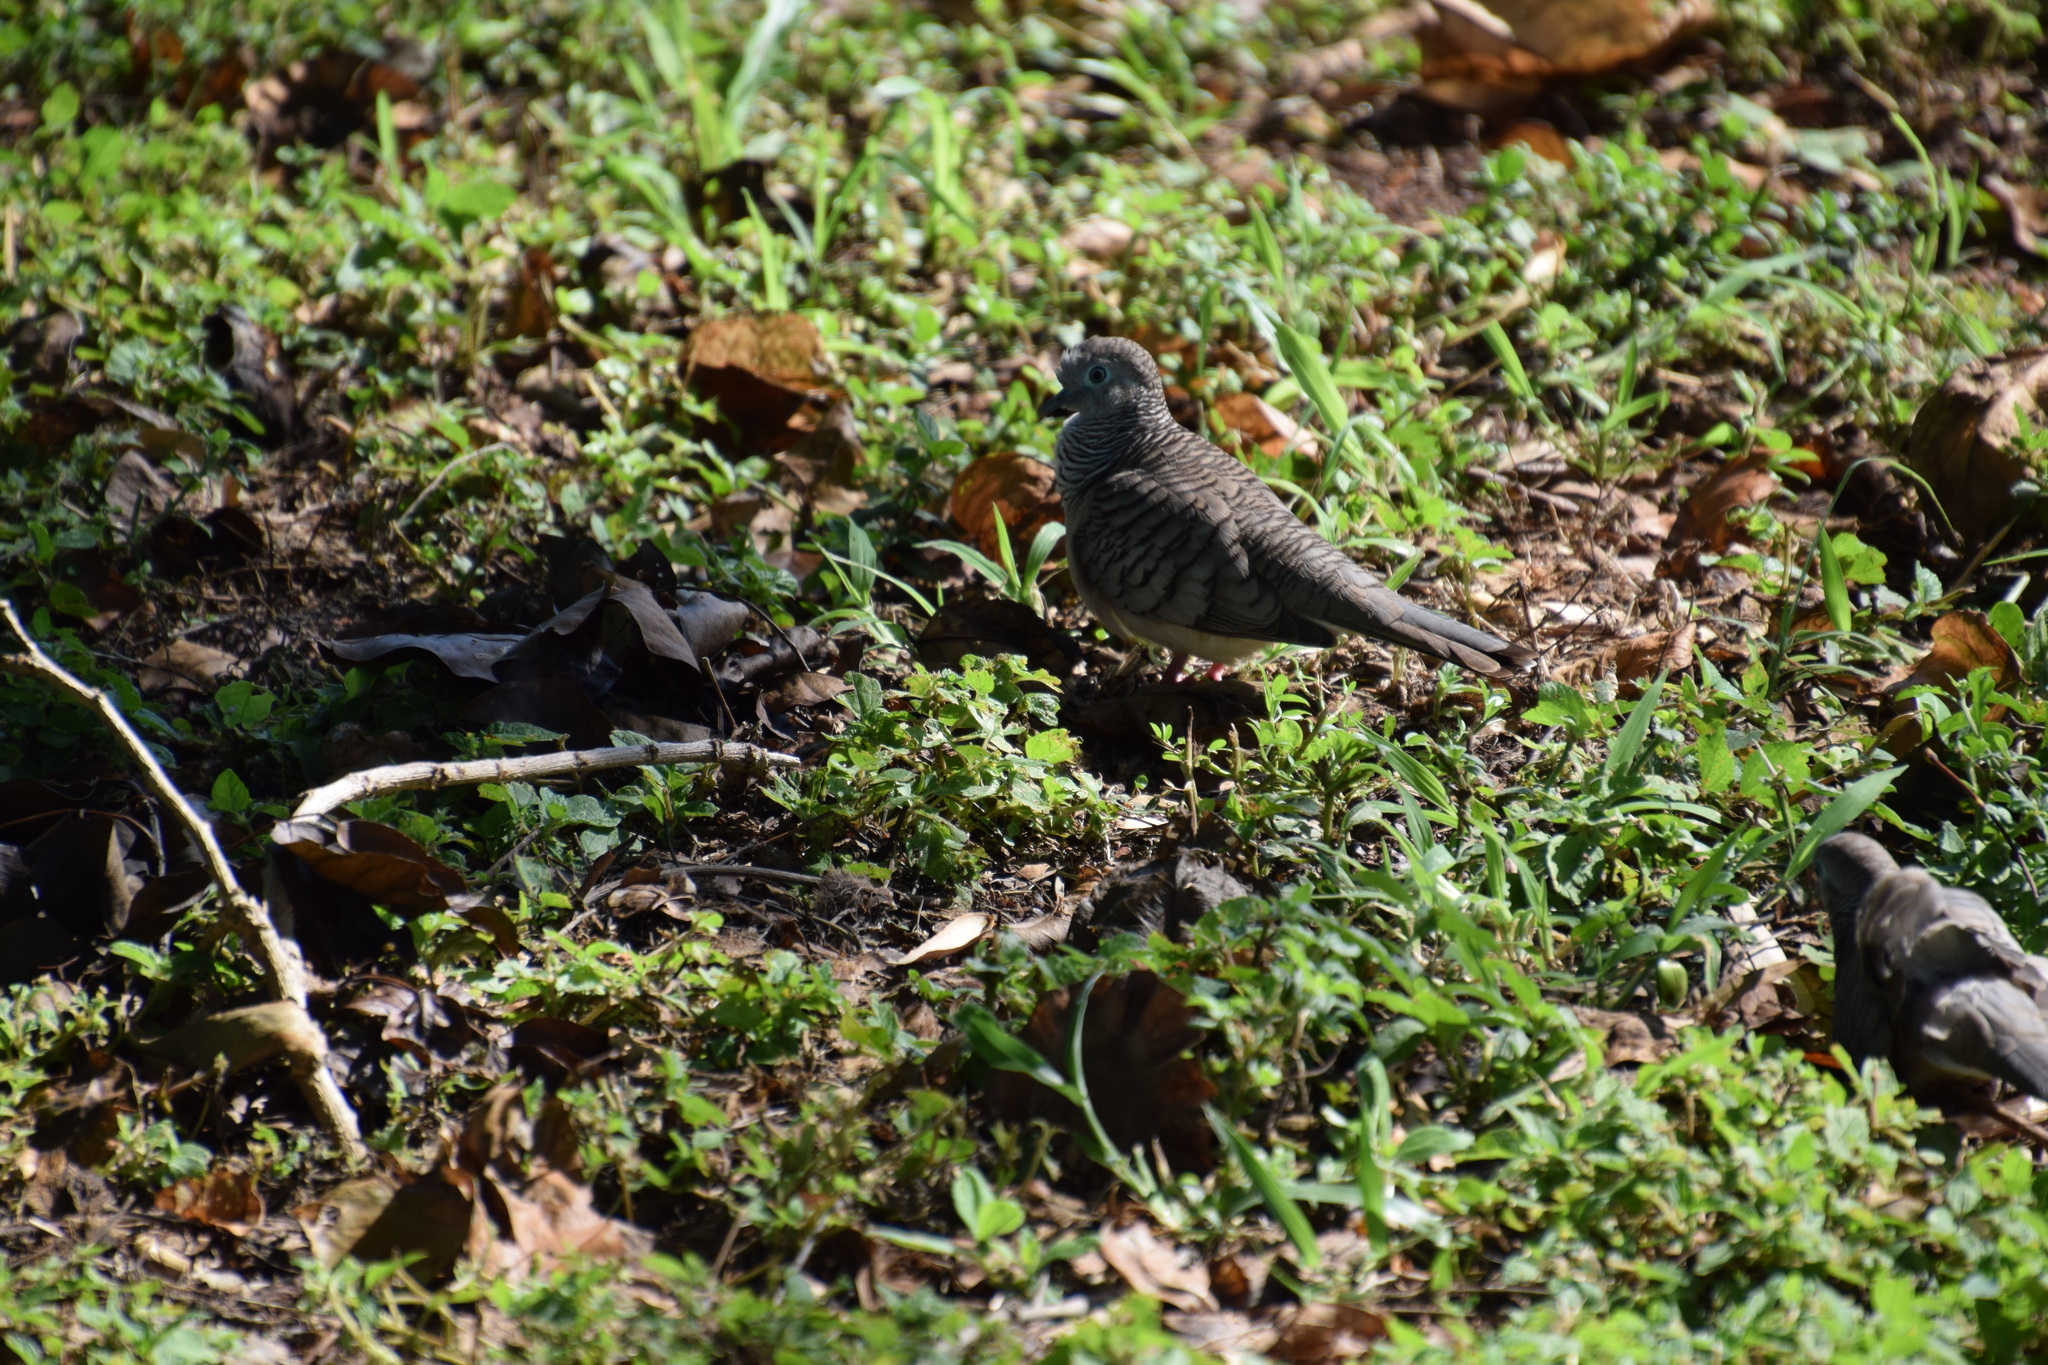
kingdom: Animalia
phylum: Chordata
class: Aves
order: Columbiformes
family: Columbidae
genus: Geopelia
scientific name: Geopelia placida
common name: Peaceful dove
